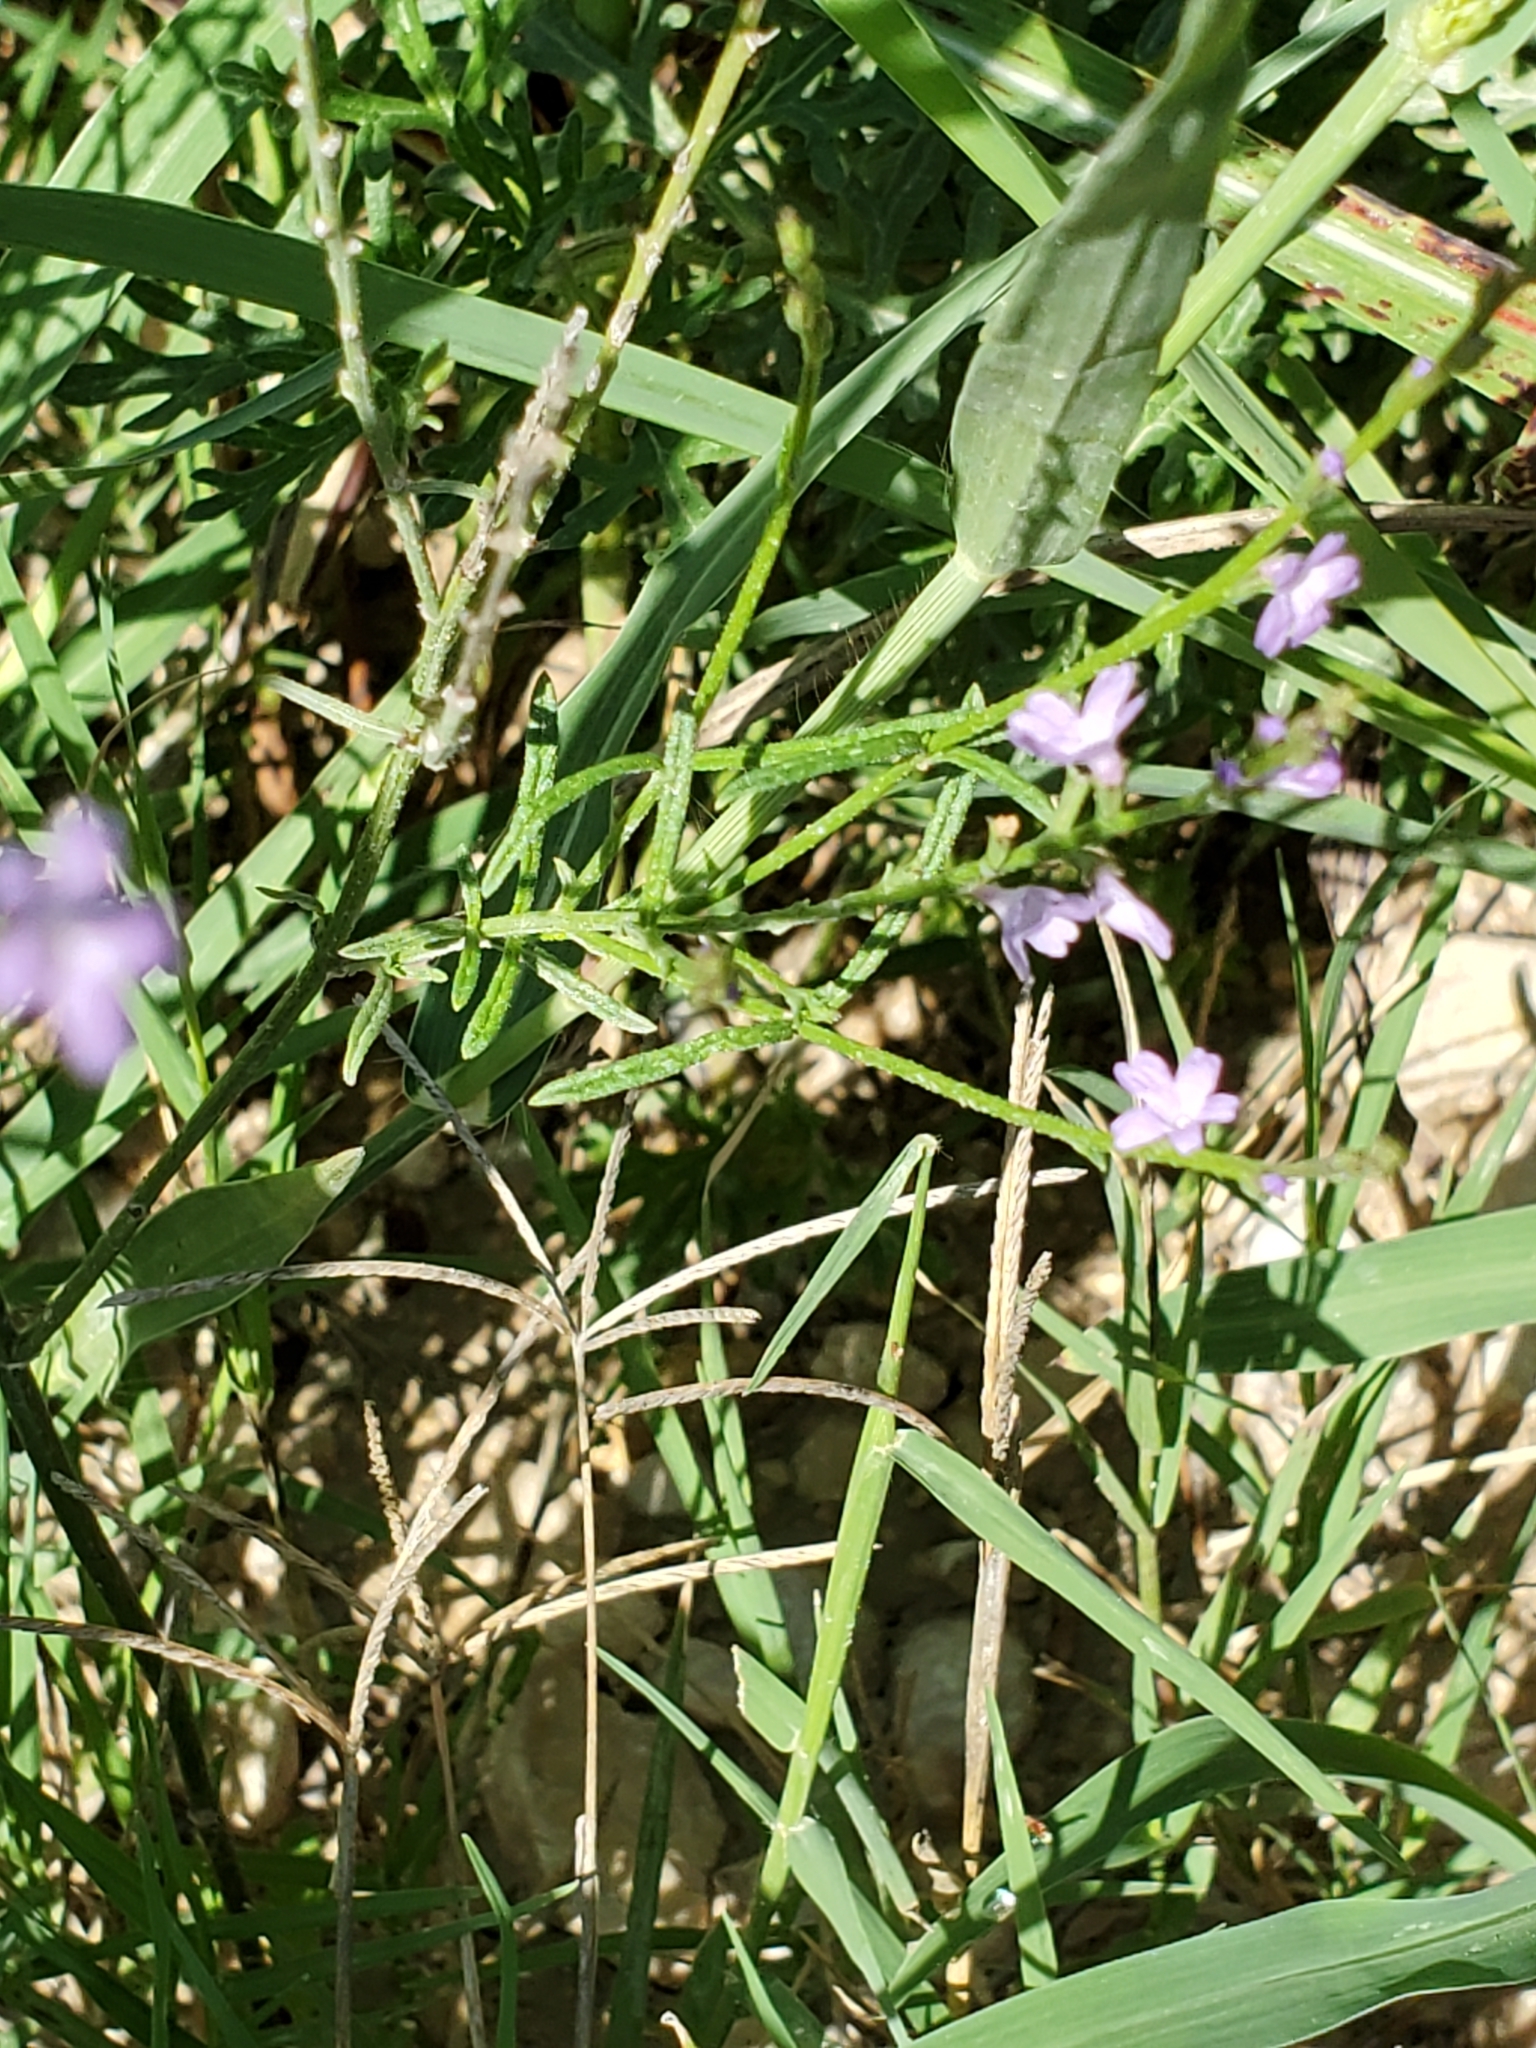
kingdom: Plantae
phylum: Tracheophyta
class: Magnoliopsida
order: Lamiales
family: Verbenaceae
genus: Verbena
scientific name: Verbena halei
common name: Texas vervain
